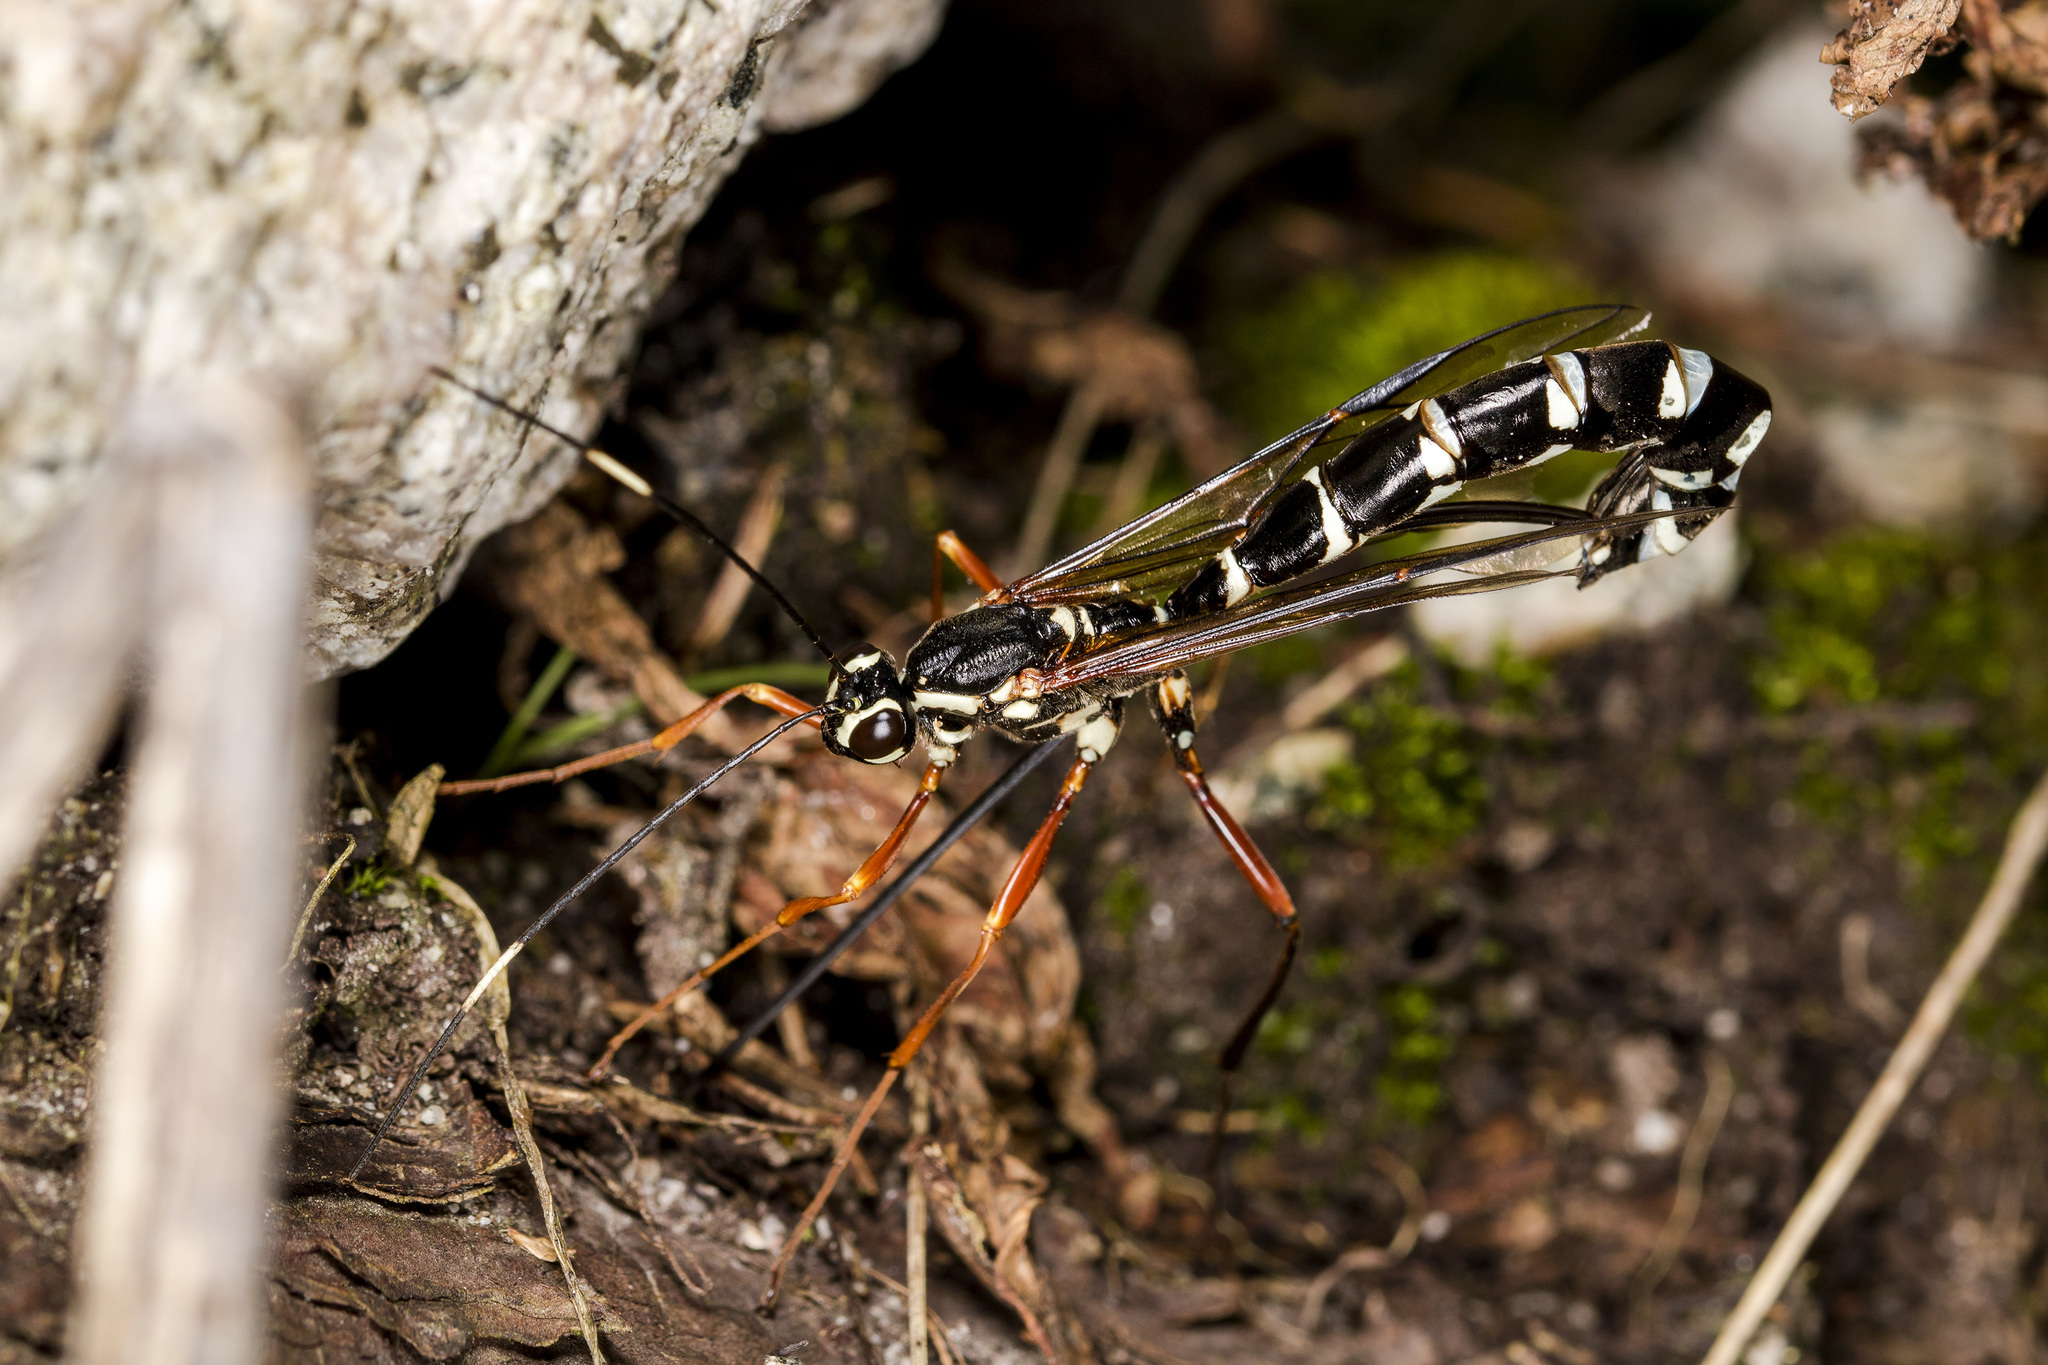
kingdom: Animalia
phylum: Arthropoda
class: Insecta
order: Hymenoptera
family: Ichneumonidae
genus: Rhyssa
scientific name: Rhyssa amoena
